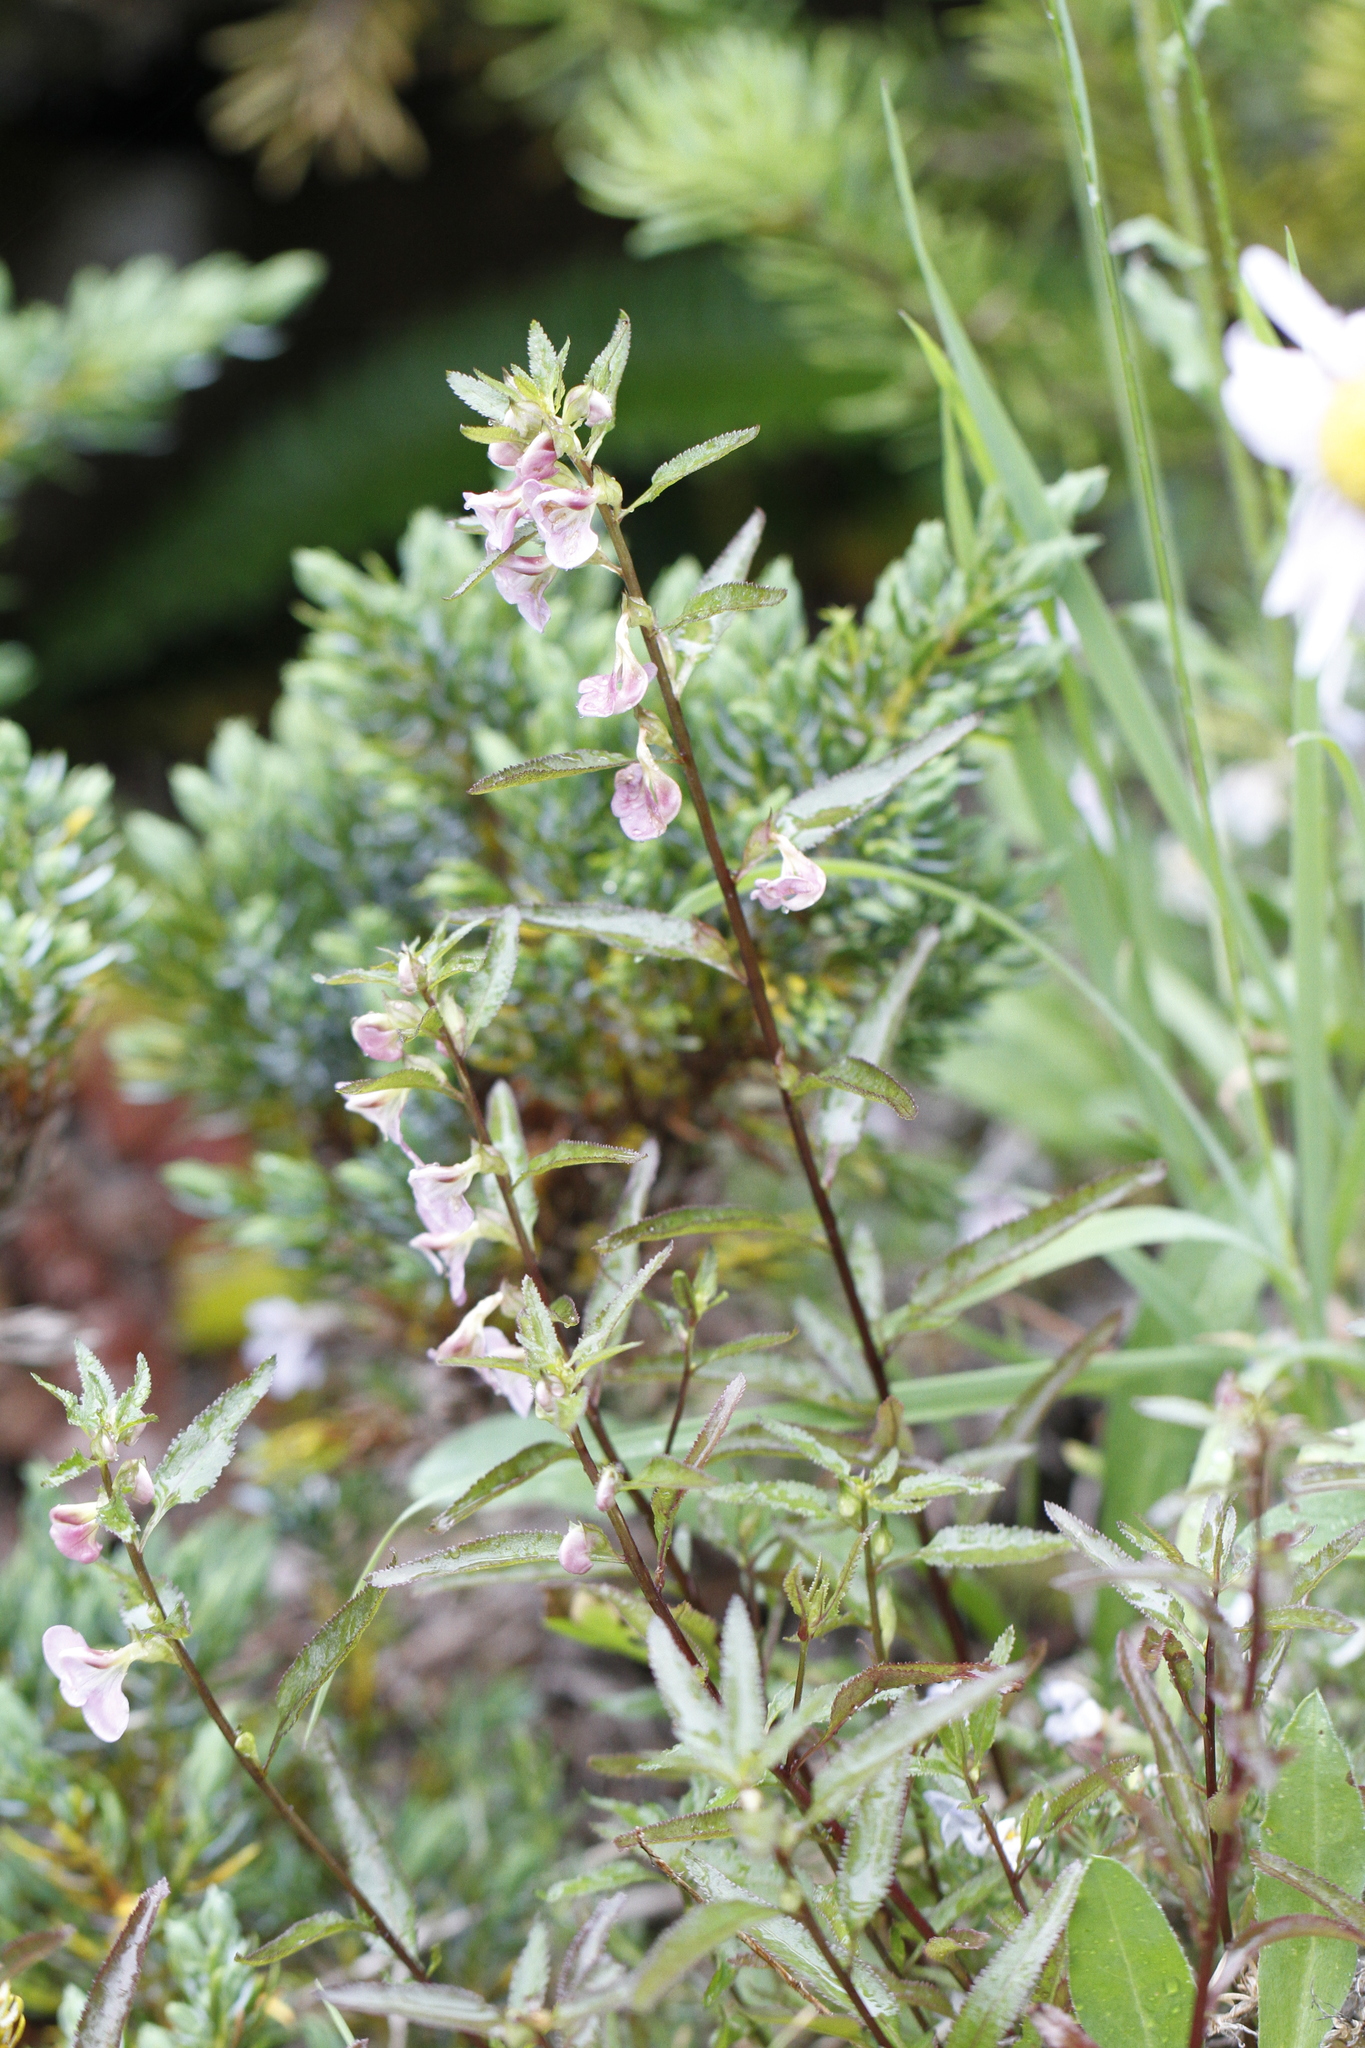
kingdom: Plantae
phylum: Tracheophyta
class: Magnoliopsida
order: Lamiales
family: Orobanchaceae
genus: Pedicularis
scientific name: Pedicularis racemosa
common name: Leafy lousewort
